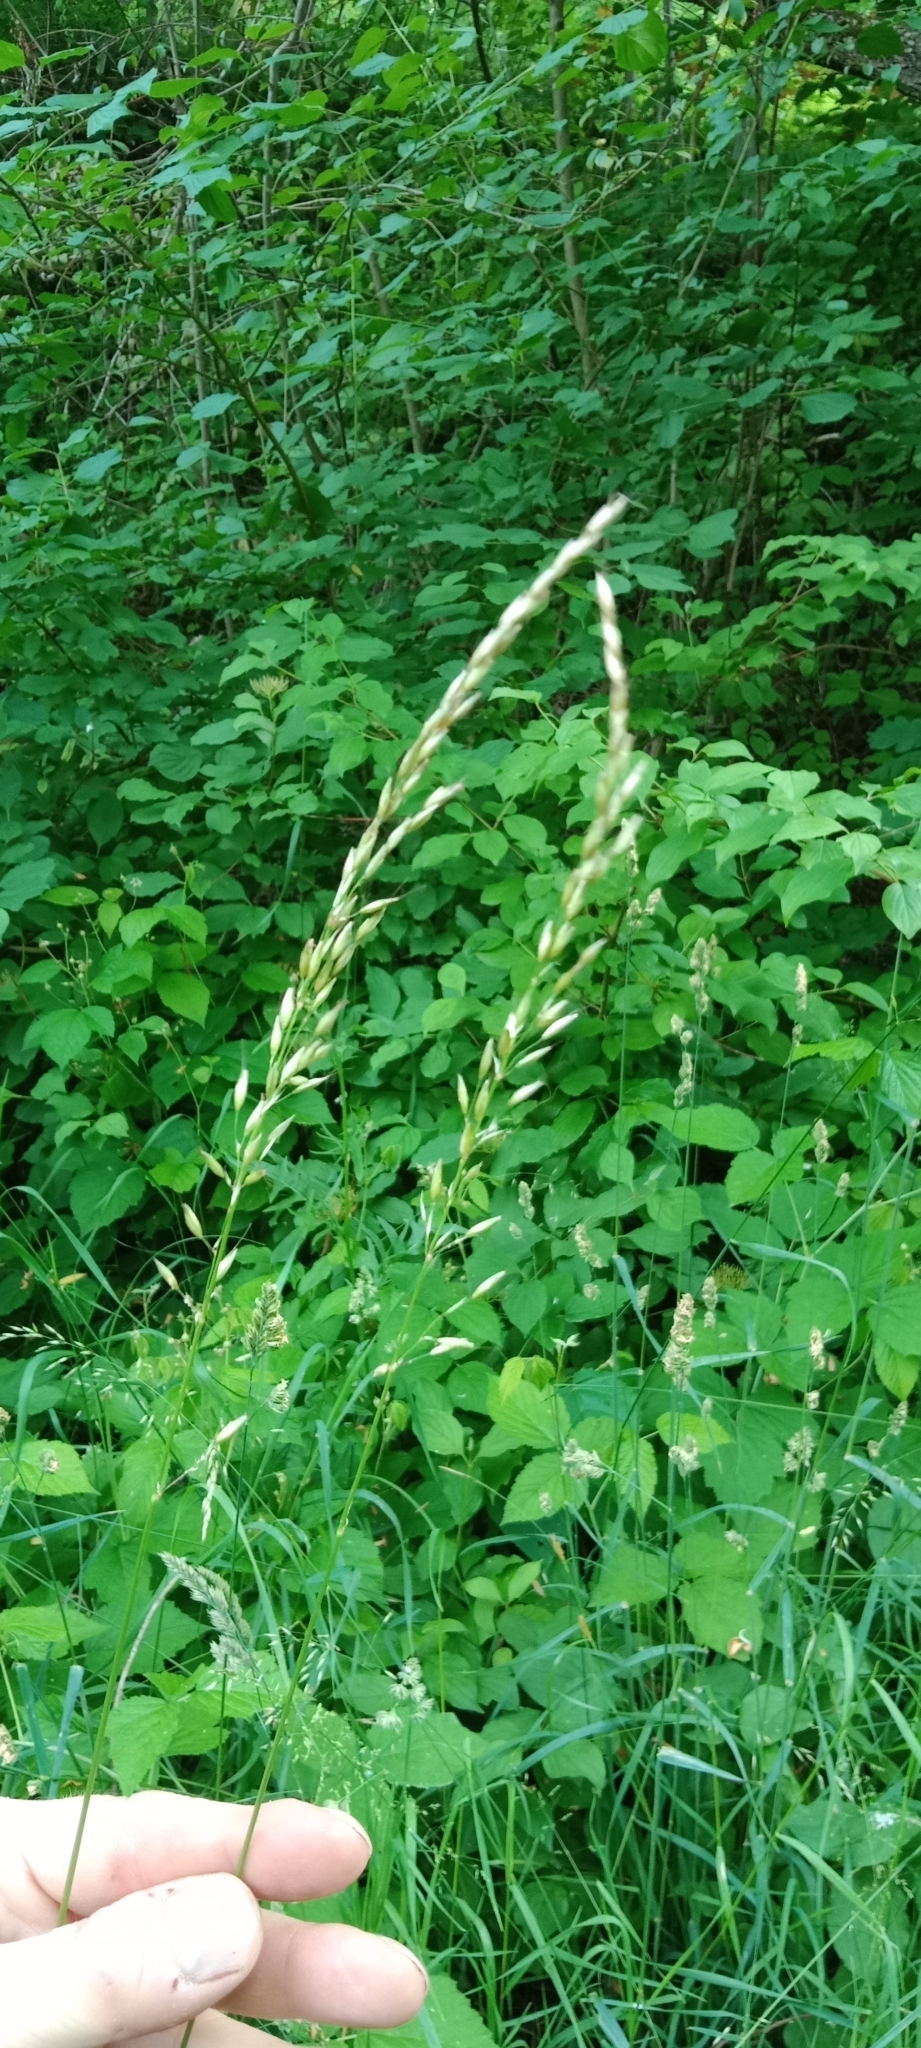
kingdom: Plantae
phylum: Tracheophyta
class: Liliopsida
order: Poales
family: Poaceae
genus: Arrhenatherum
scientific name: Arrhenatherum elatius
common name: Tall oatgrass
